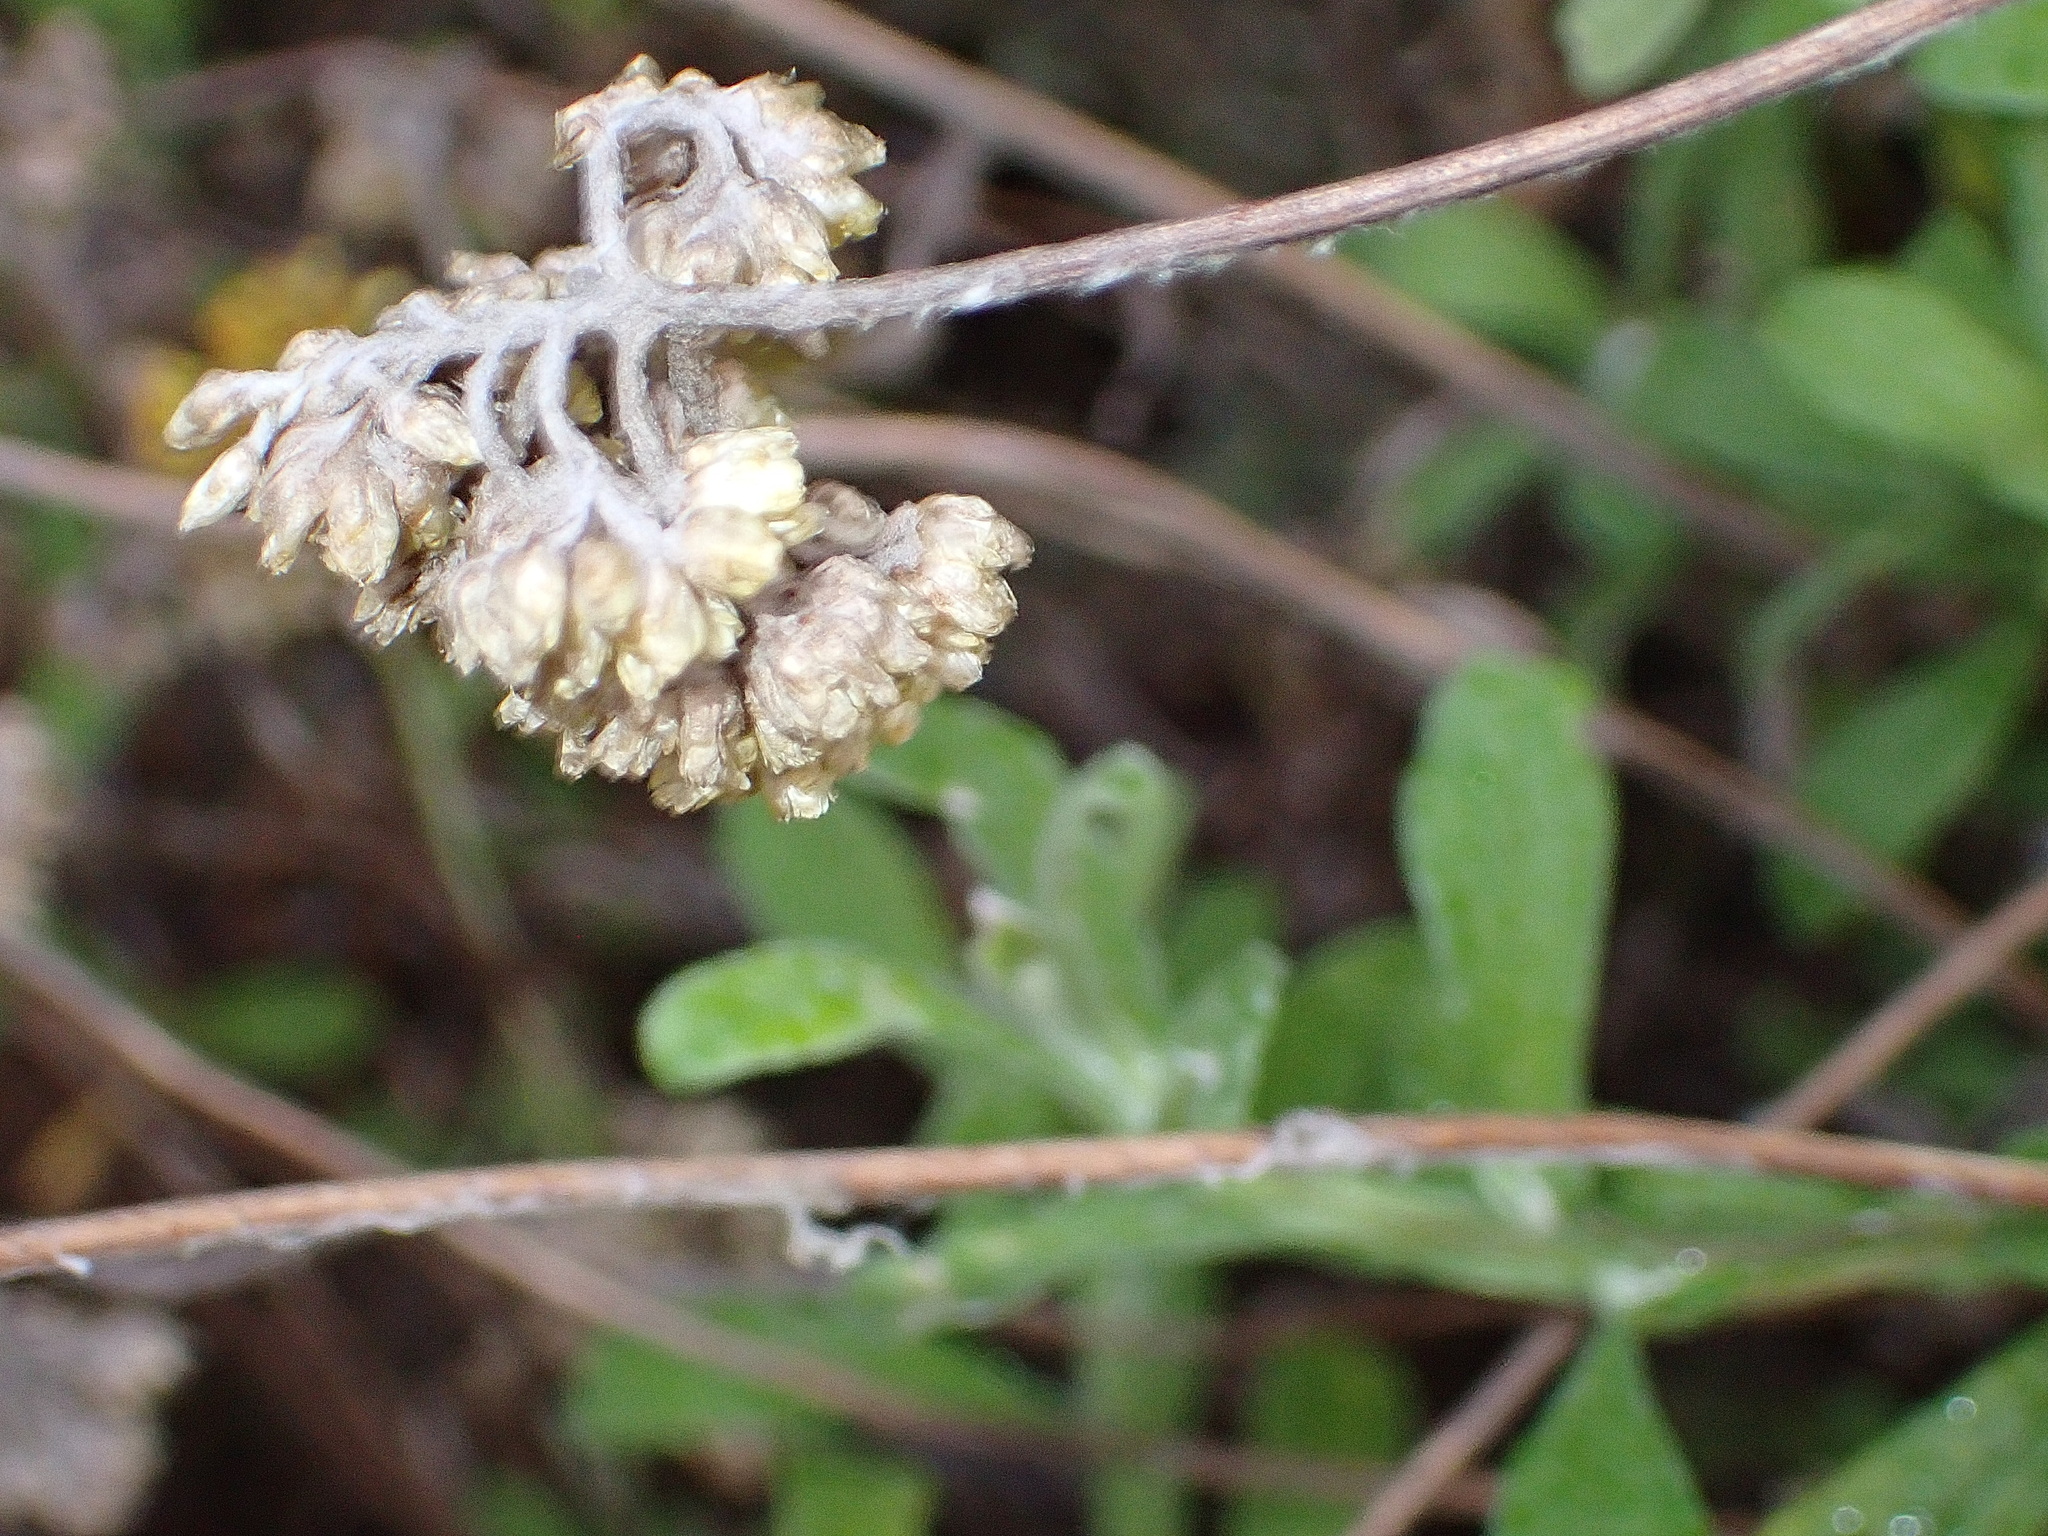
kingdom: Plantae
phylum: Tracheophyta
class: Magnoliopsida
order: Asterales
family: Asteraceae
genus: Helichrysum
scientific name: Helichrysum odoratissimum
